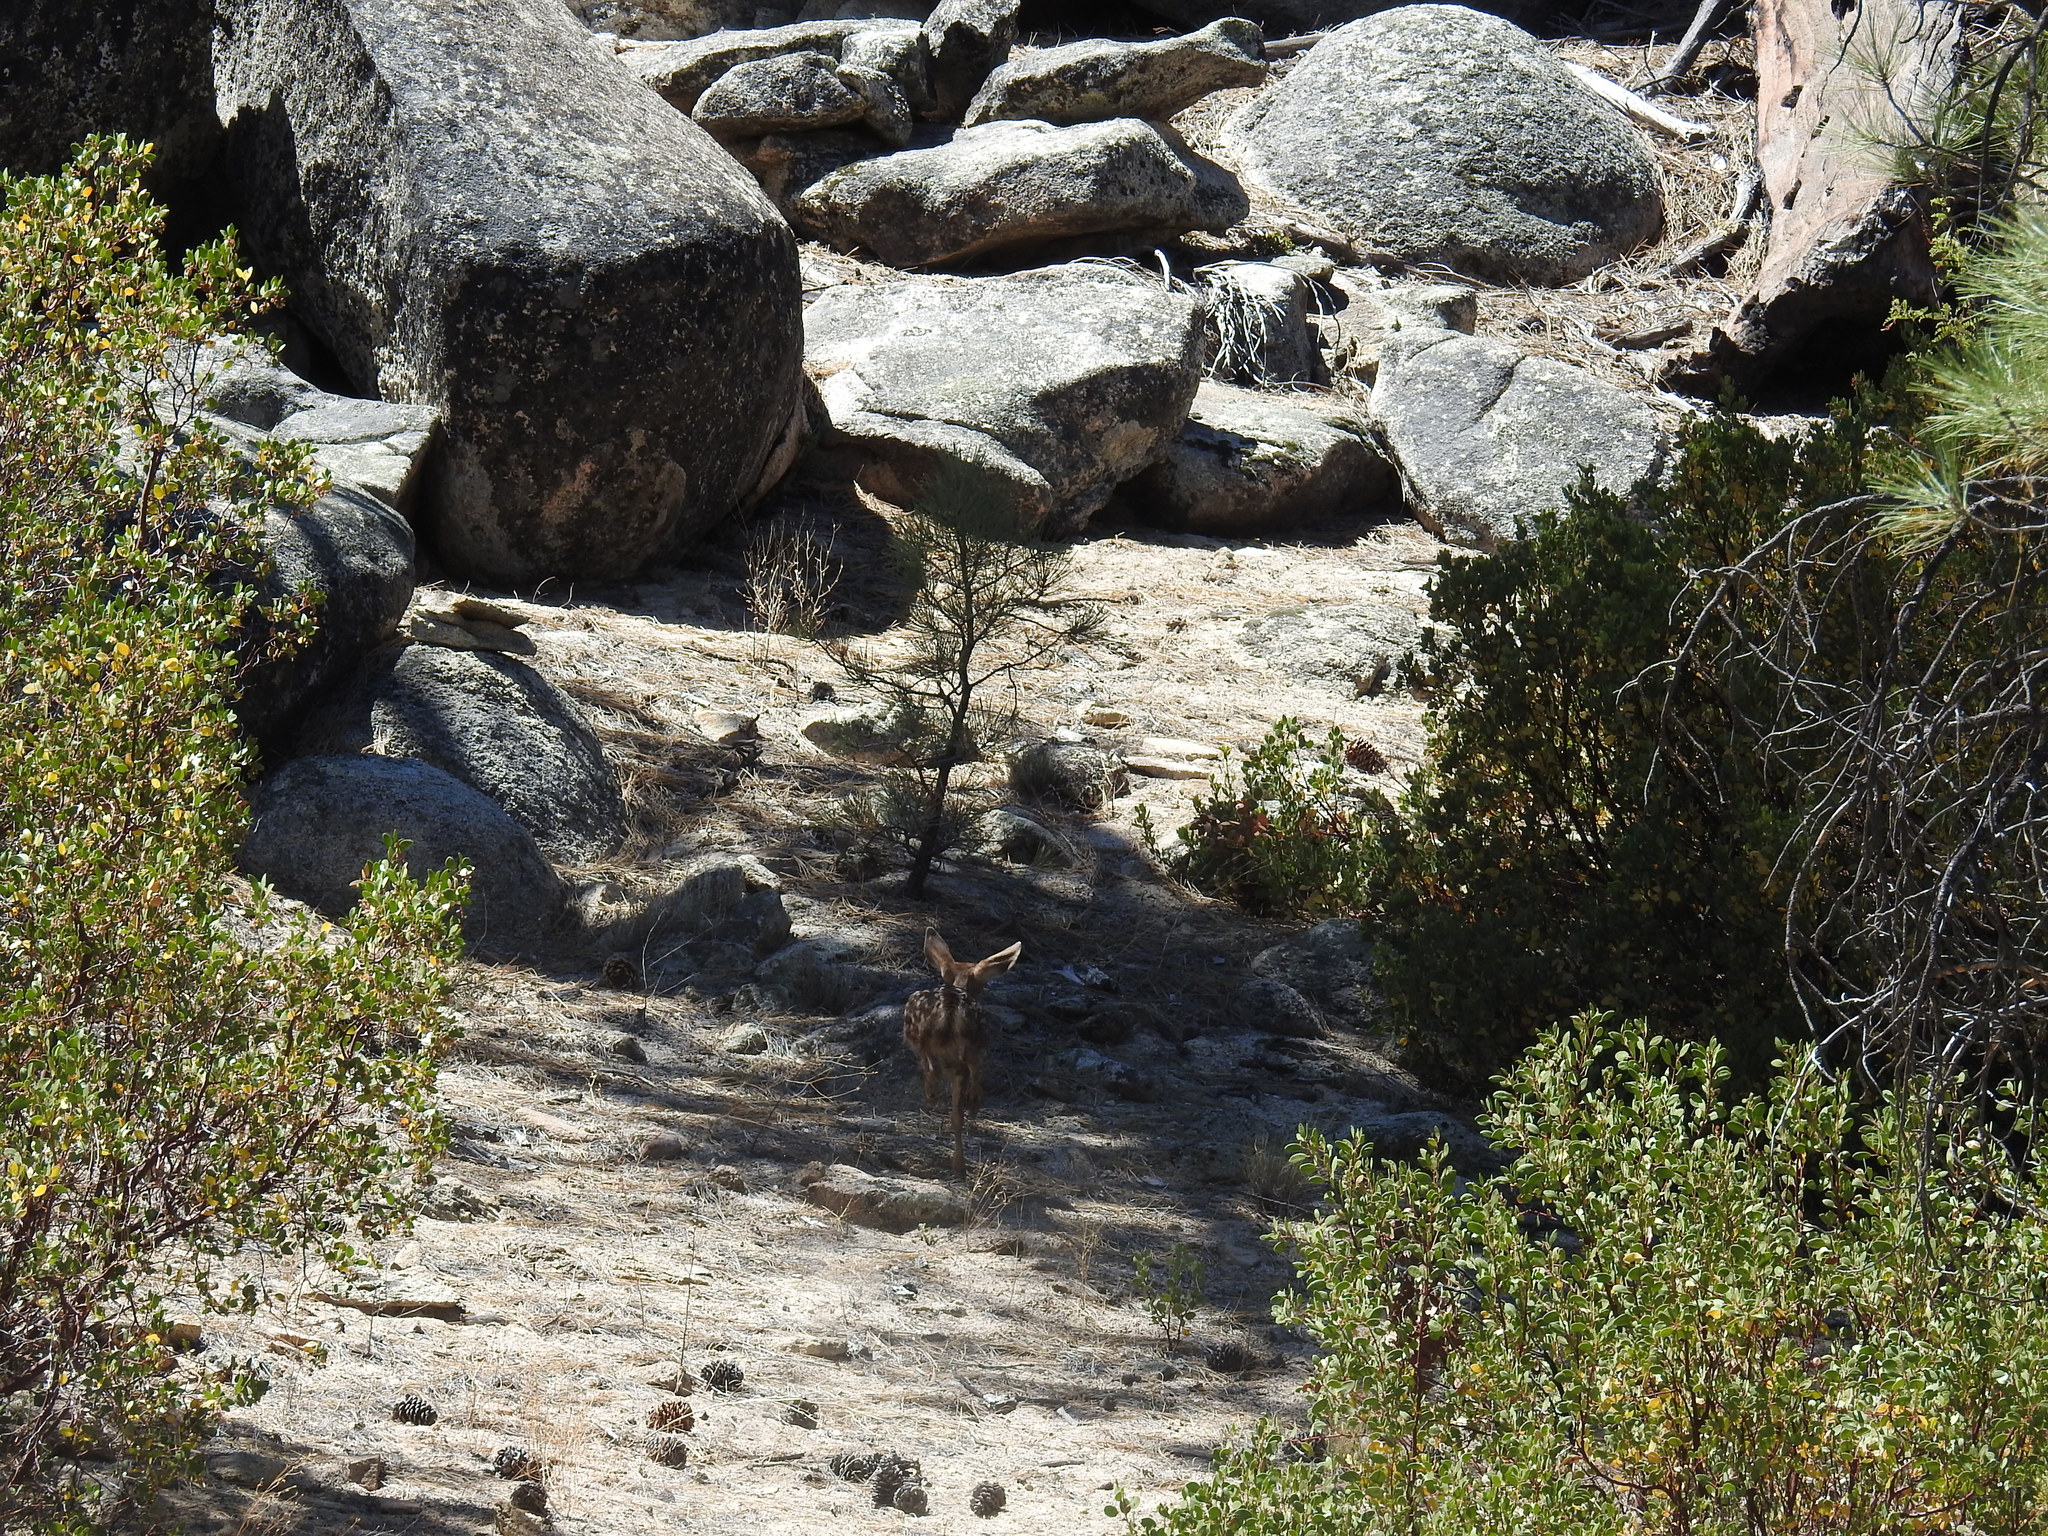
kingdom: Animalia
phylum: Chordata
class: Mammalia
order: Artiodactyla
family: Cervidae
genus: Odocoileus
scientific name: Odocoileus hemionus
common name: Mule deer
